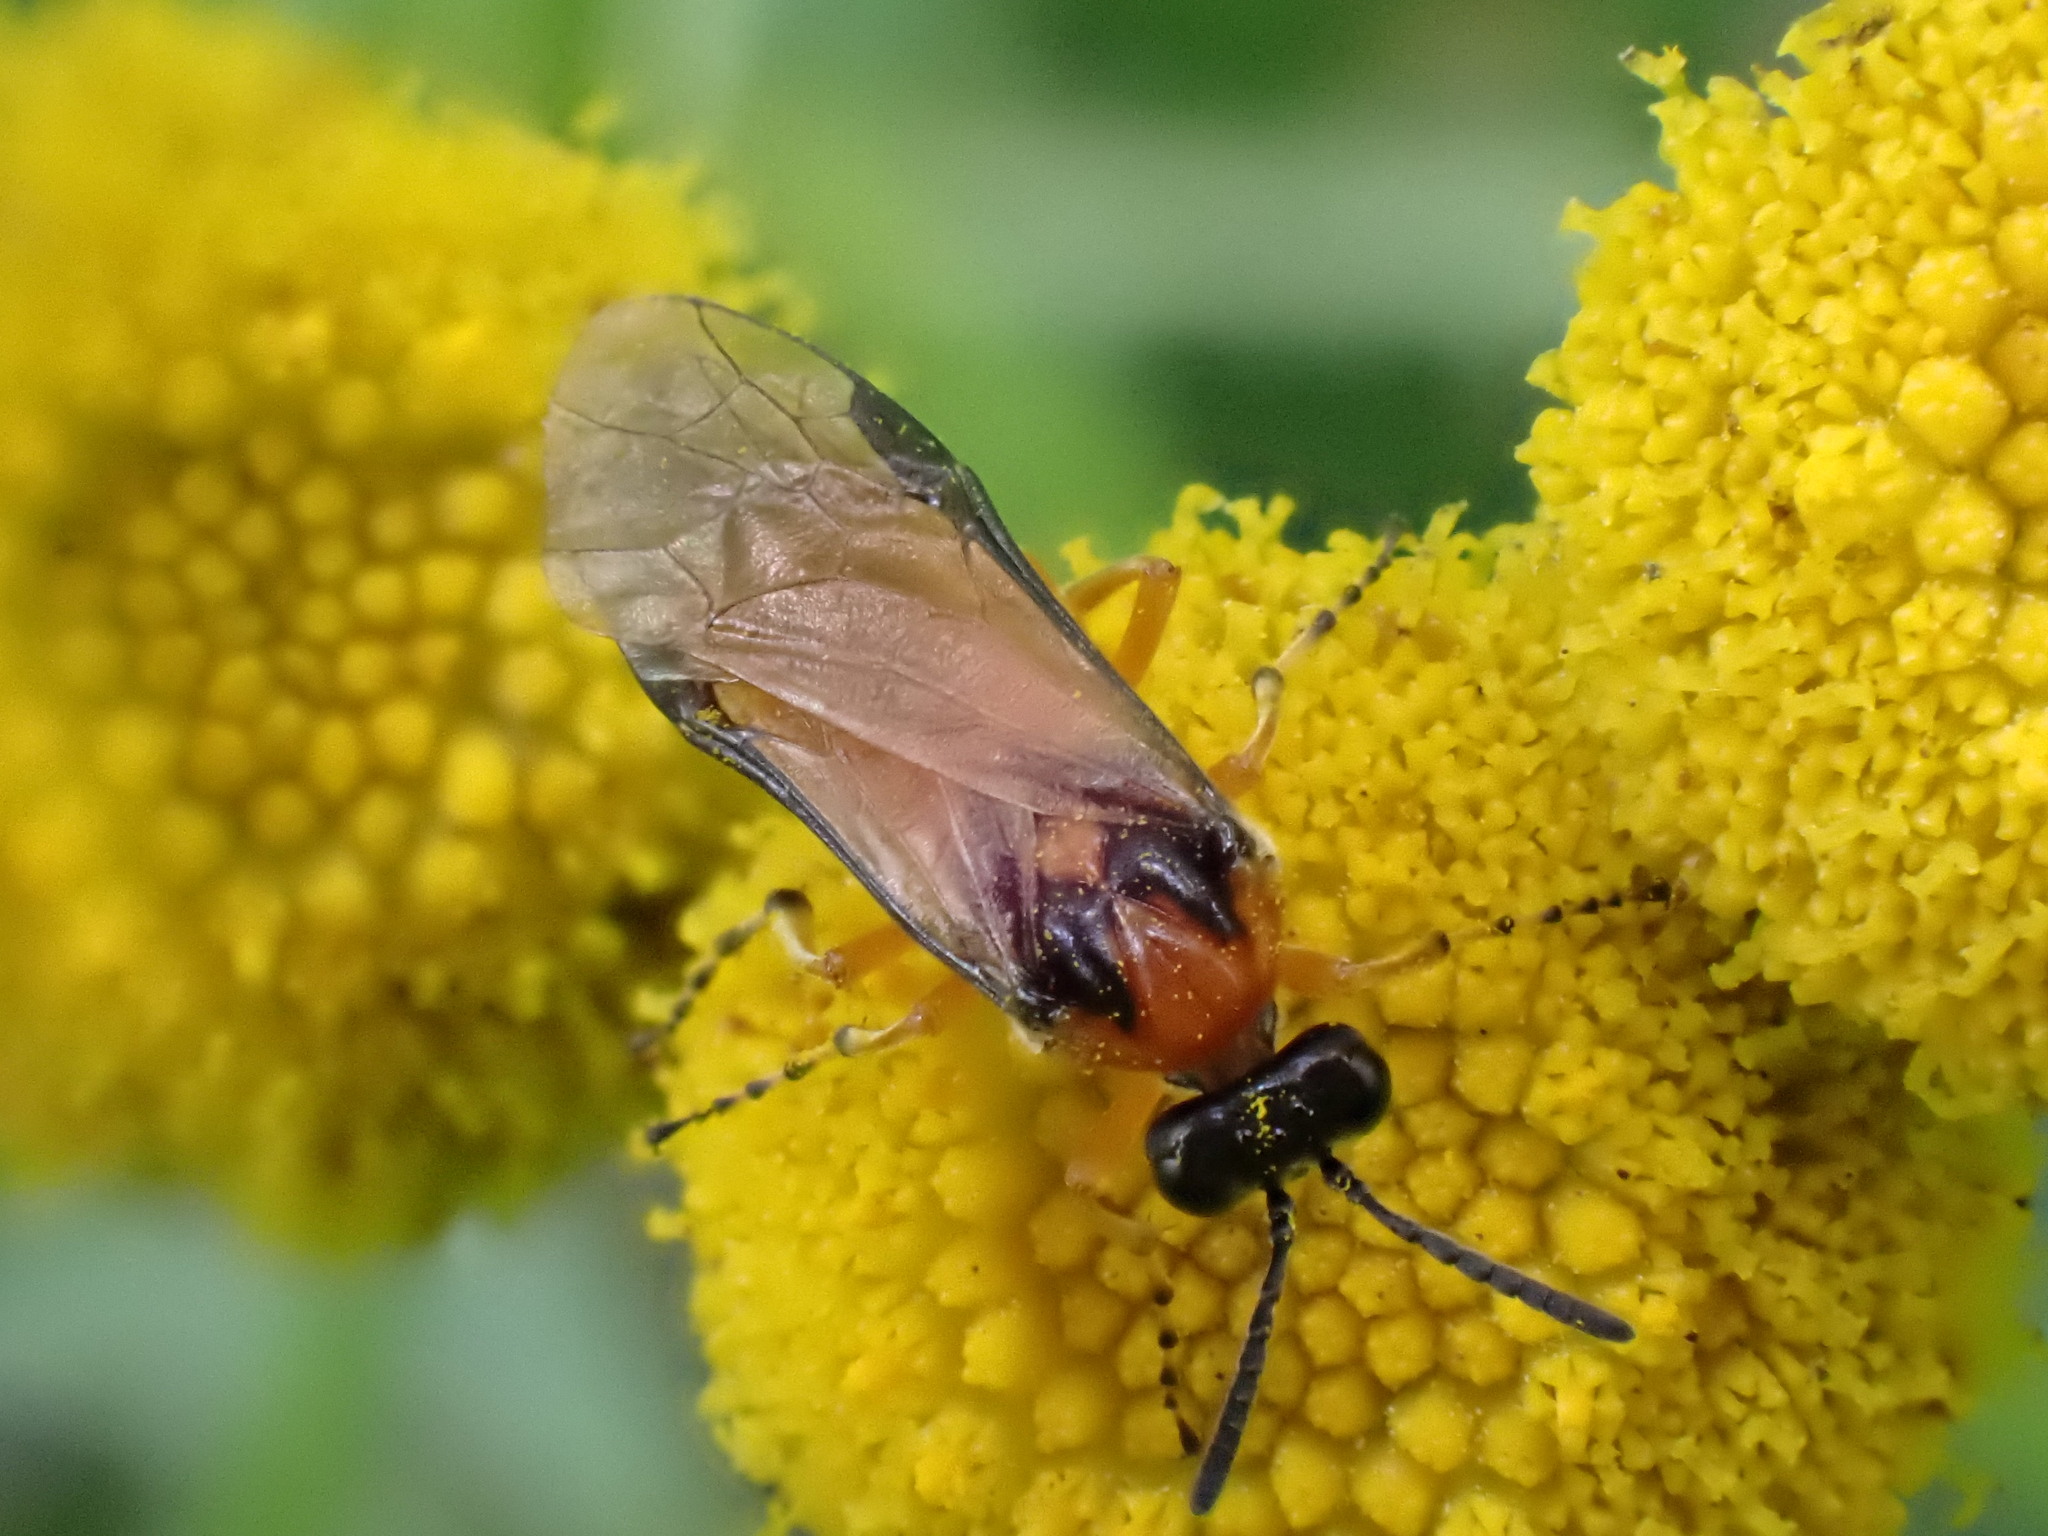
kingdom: Animalia
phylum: Arthropoda
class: Insecta
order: Hymenoptera
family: Tenthredinidae
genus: Athalia
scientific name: Athalia rosae
